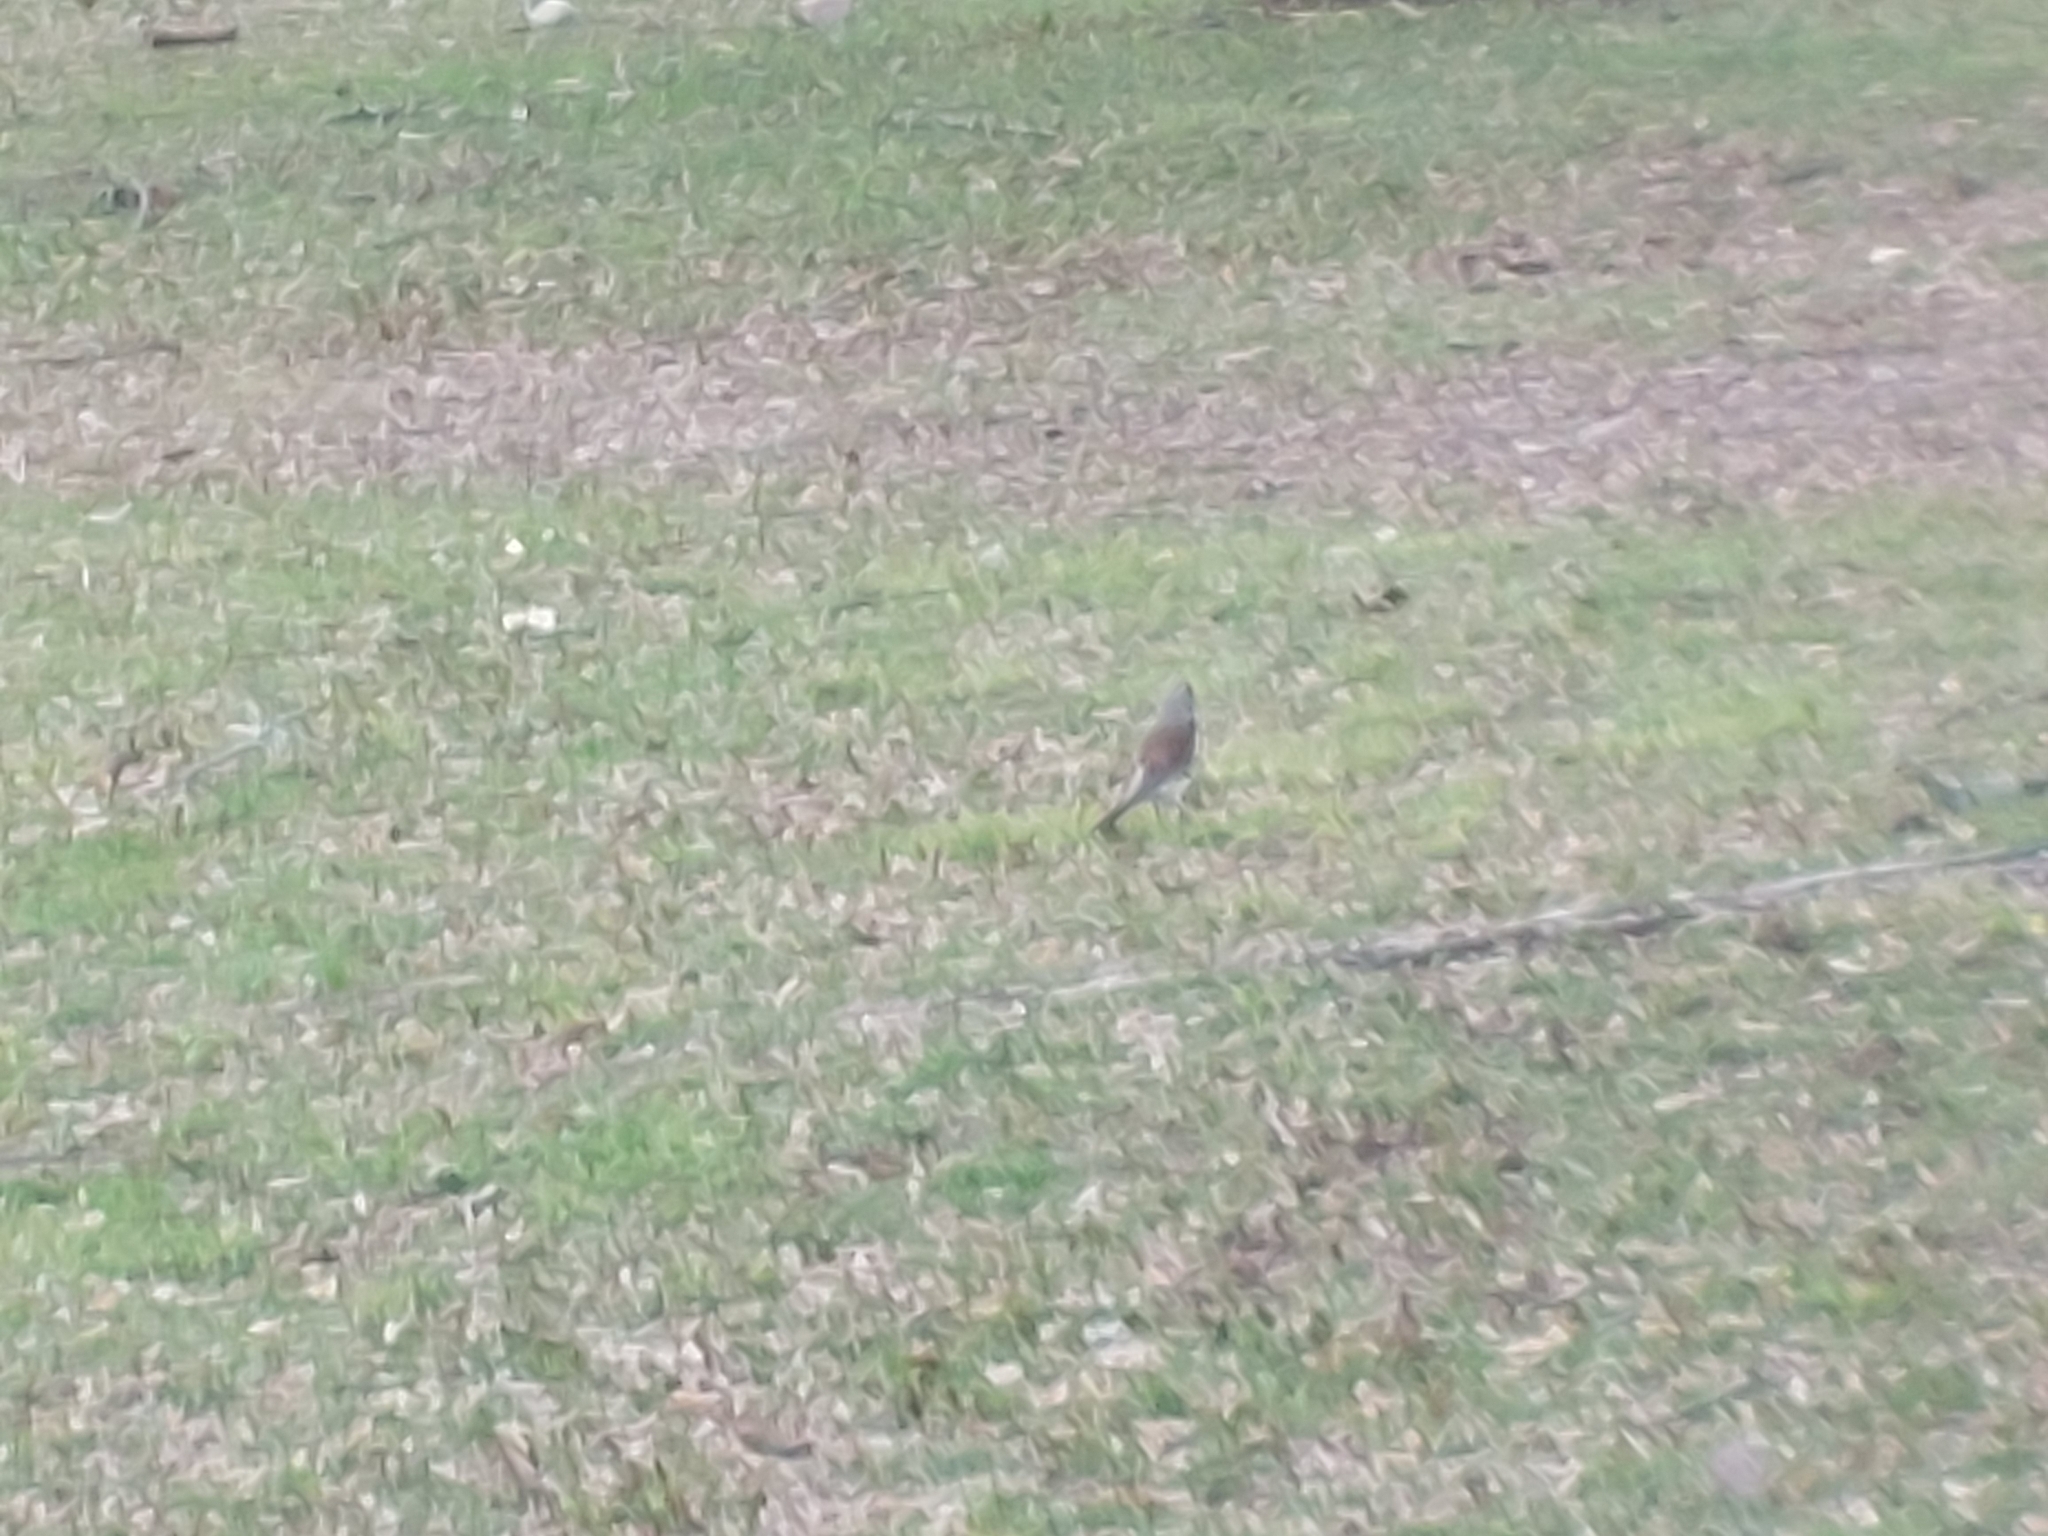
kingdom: Animalia
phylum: Chordata
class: Aves
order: Passeriformes
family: Turdidae
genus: Turdus
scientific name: Turdus pilaris
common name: Fieldfare
